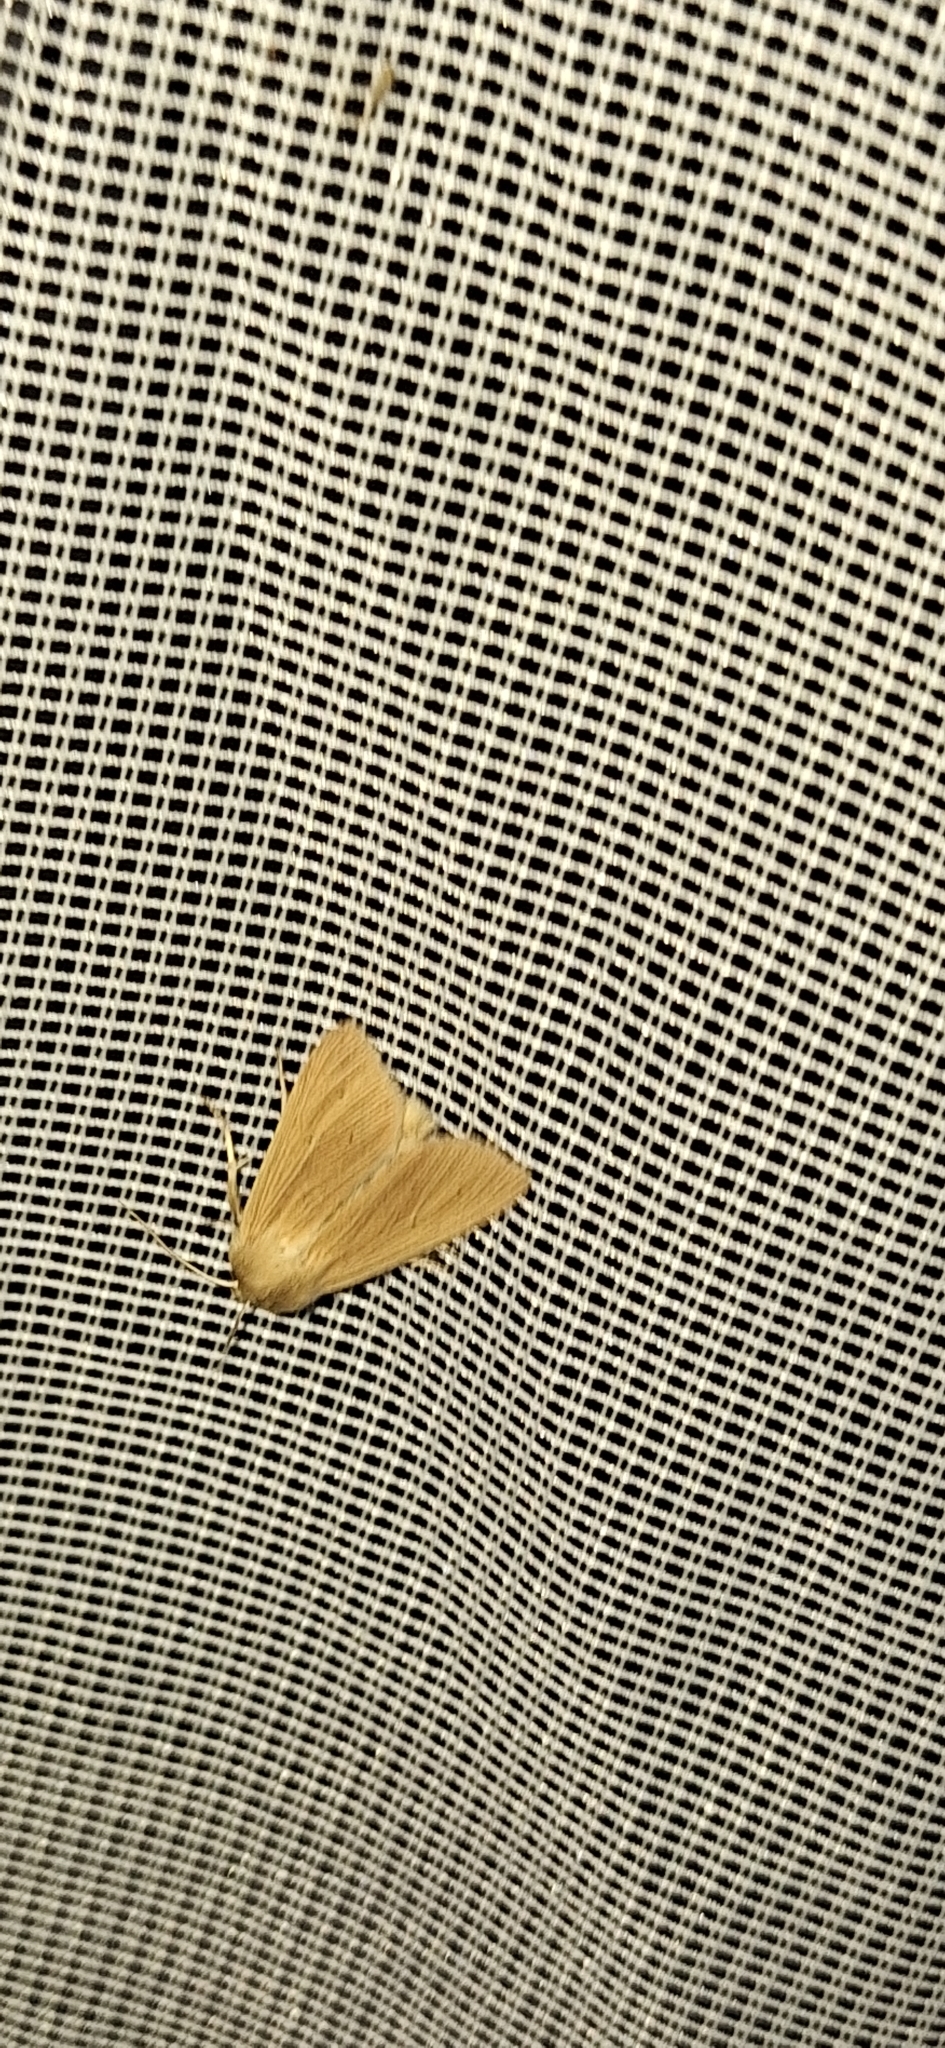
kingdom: Animalia
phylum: Arthropoda
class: Insecta
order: Lepidoptera
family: Noctuidae
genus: Mythimna
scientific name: Mythimna pallens
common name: Common wainscot
